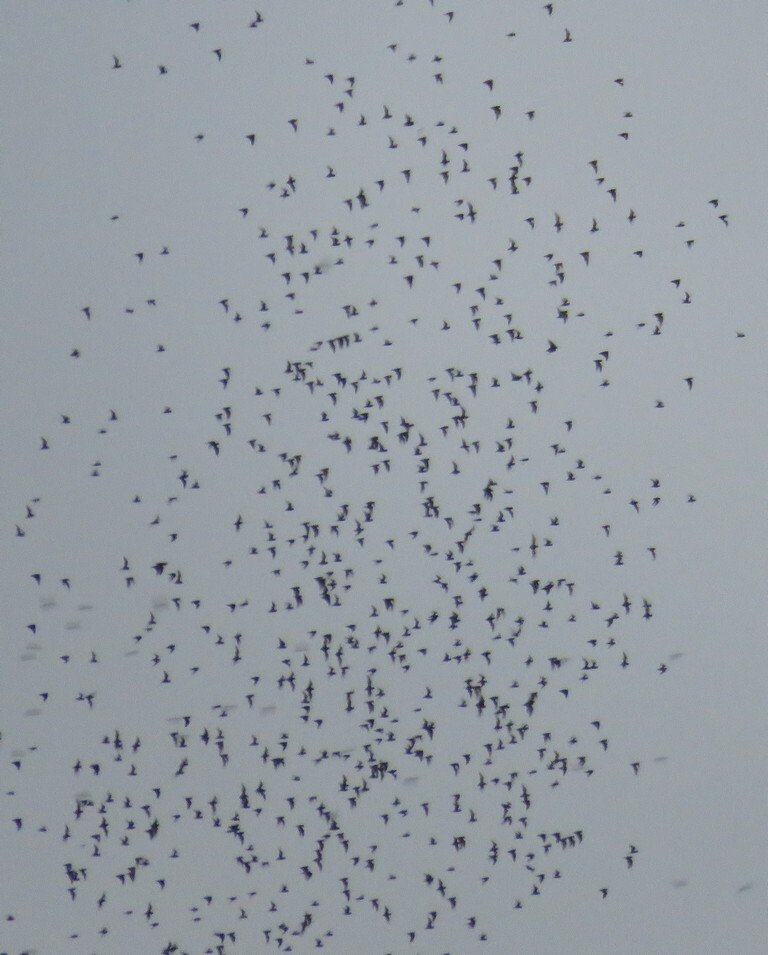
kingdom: Animalia
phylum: Chordata
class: Mammalia
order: Chiroptera
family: Molossidae
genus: Mops
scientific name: Mops
